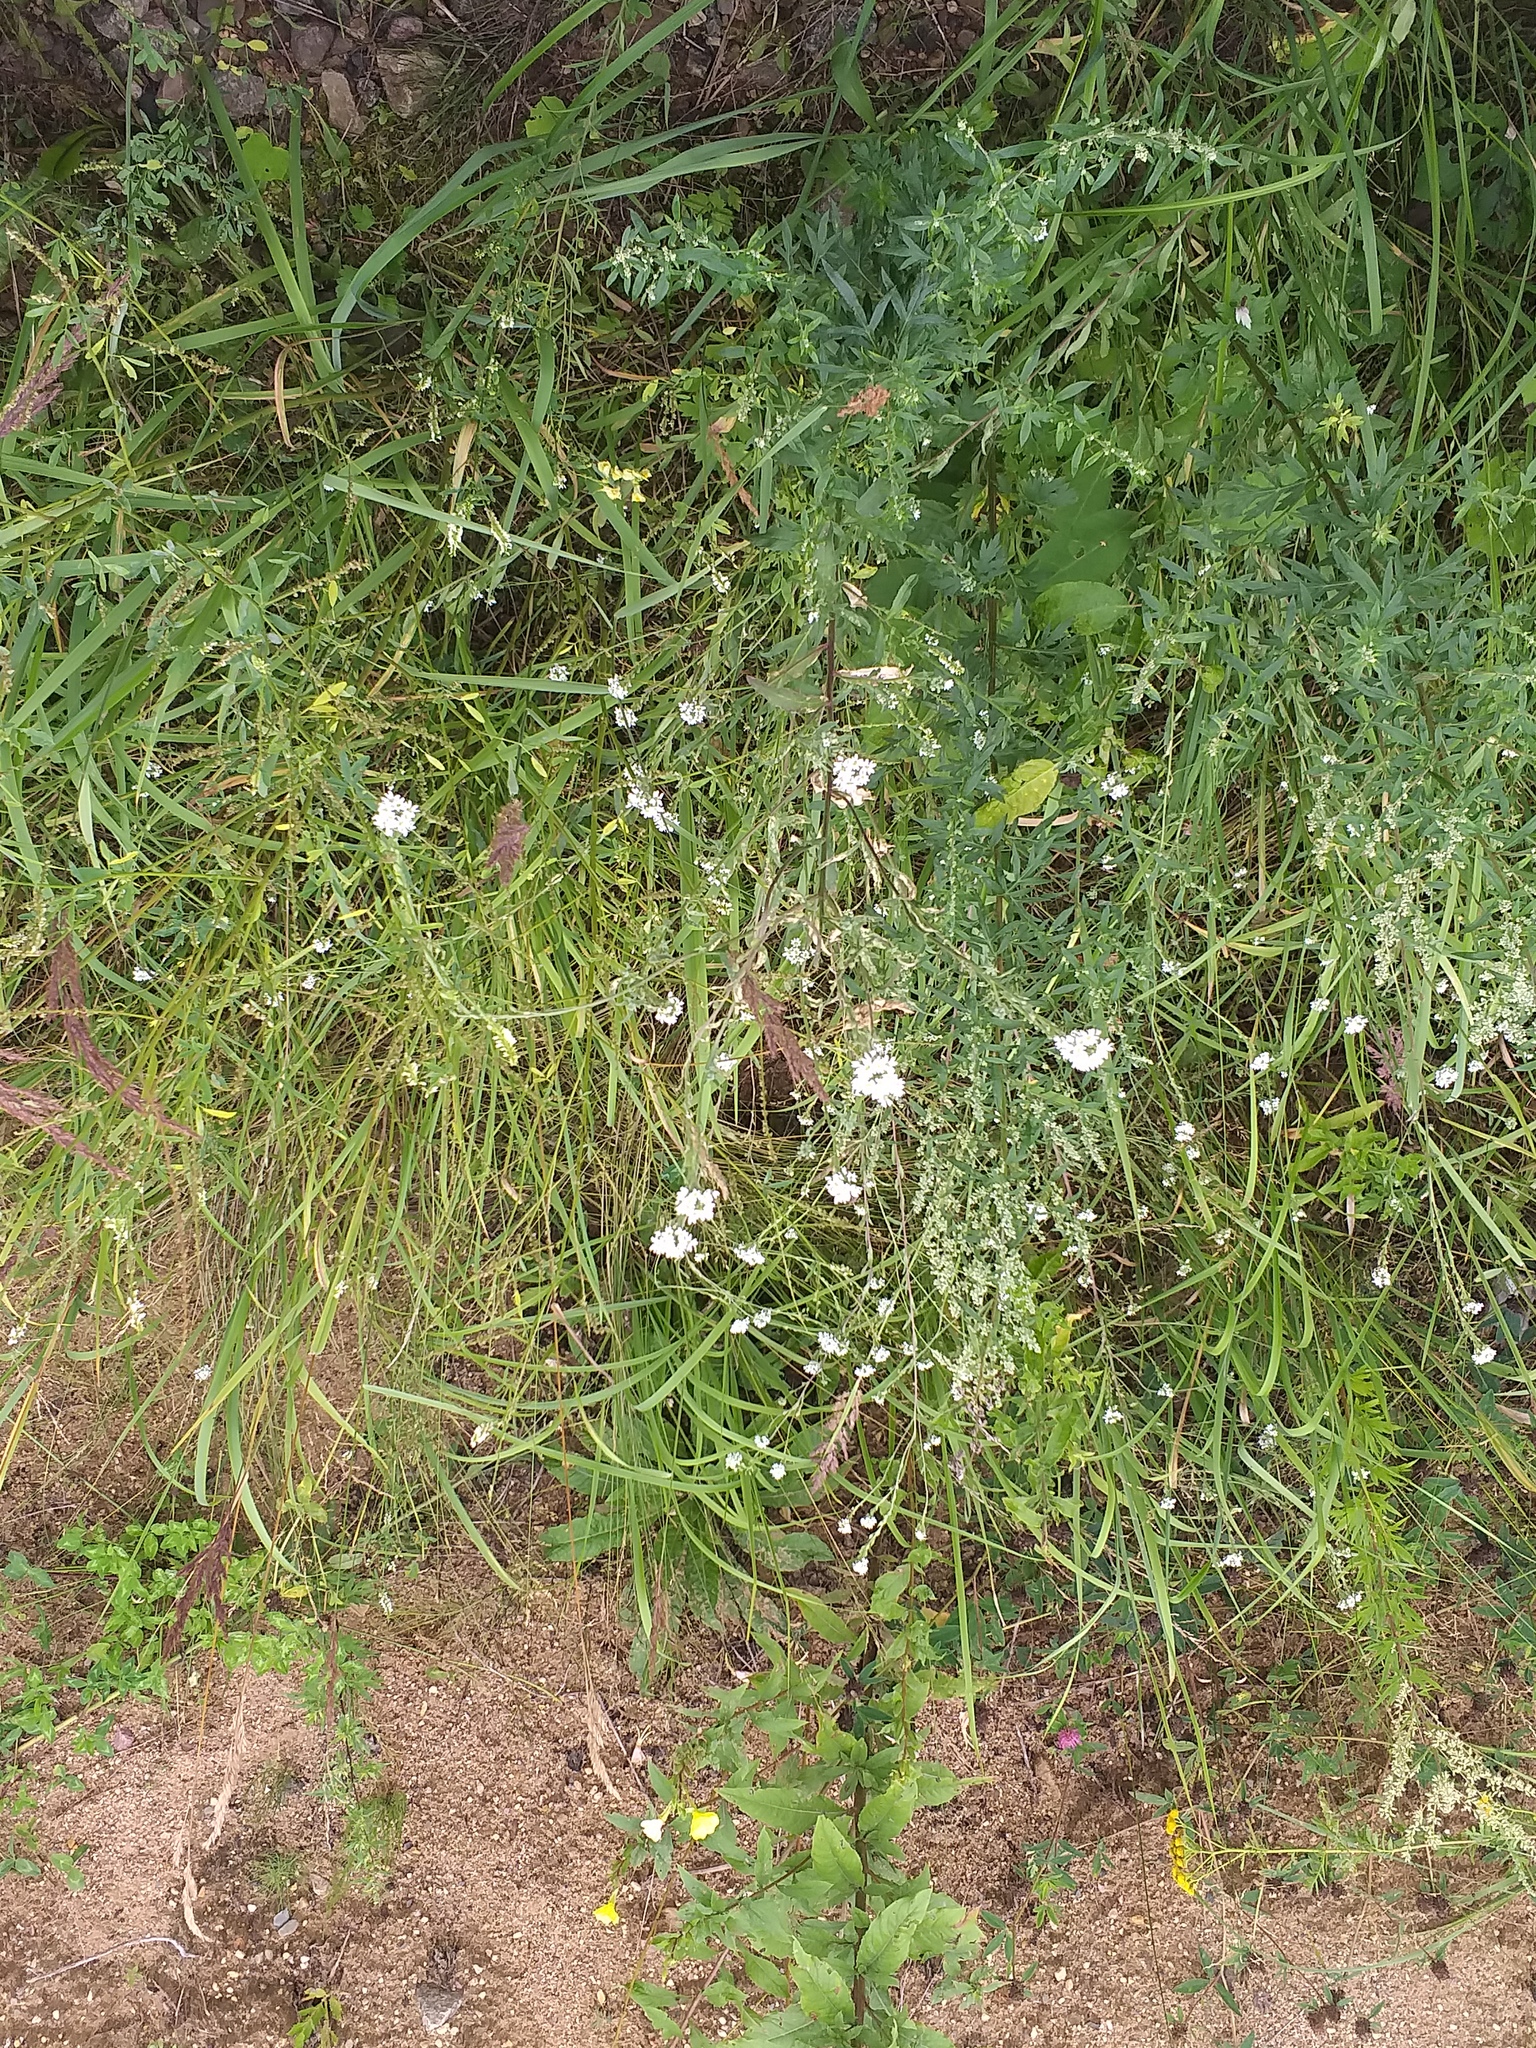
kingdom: Plantae
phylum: Tracheophyta
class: Magnoliopsida
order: Brassicales
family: Brassicaceae
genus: Berteroa
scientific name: Berteroa incana
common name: Hoary alison
